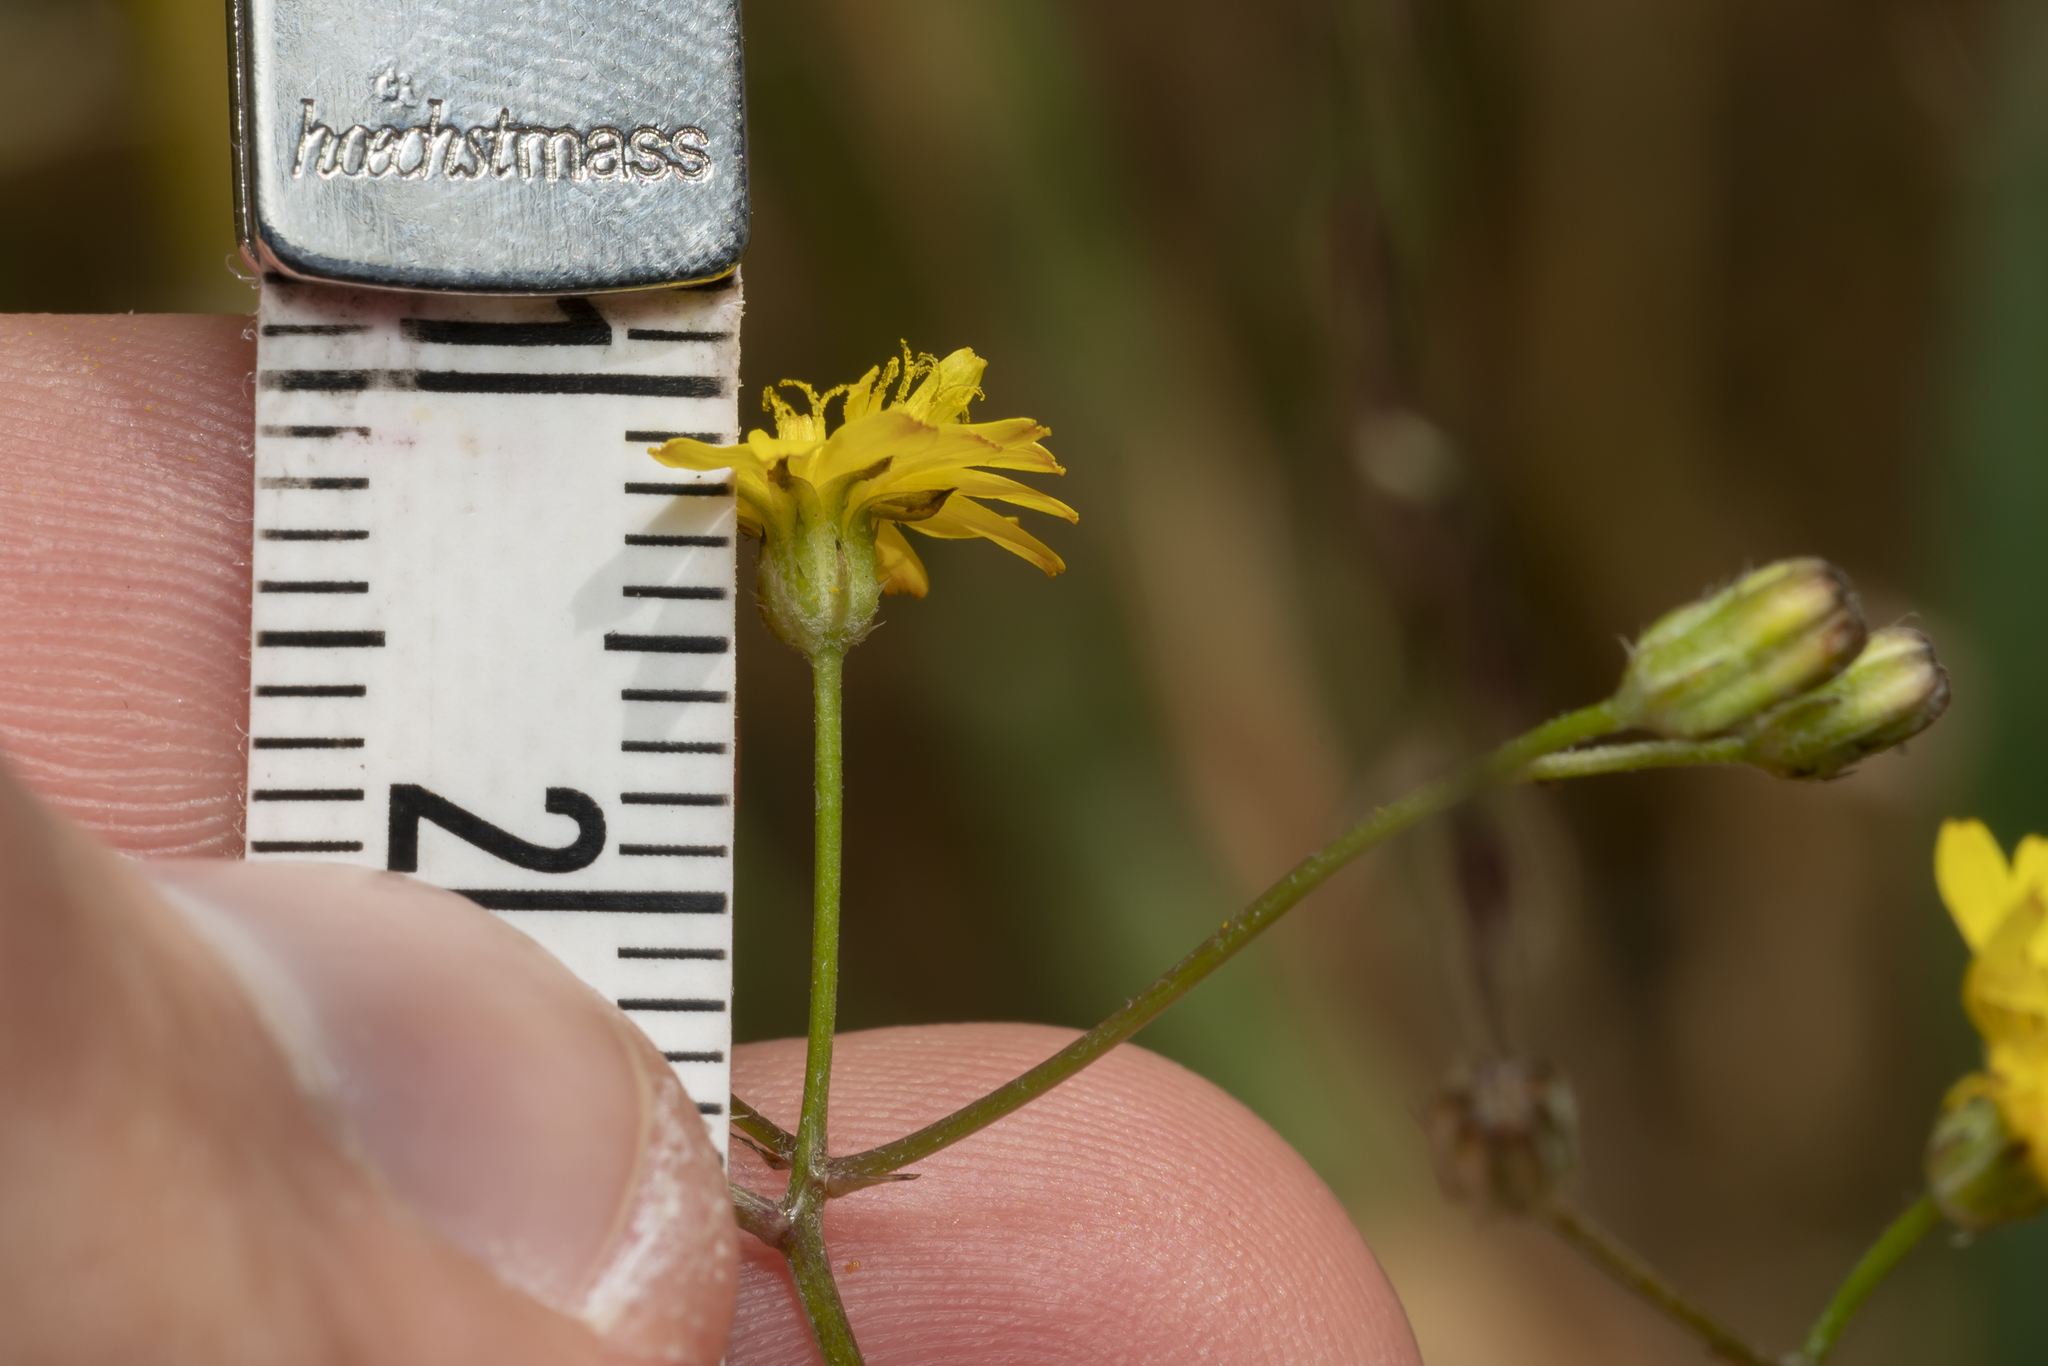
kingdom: Plantae
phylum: Tracheophyta
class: Magnoliopsida
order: Asterales
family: Asteraceae
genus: Crepis
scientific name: Crepis micrantha
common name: Hawk's-beard
